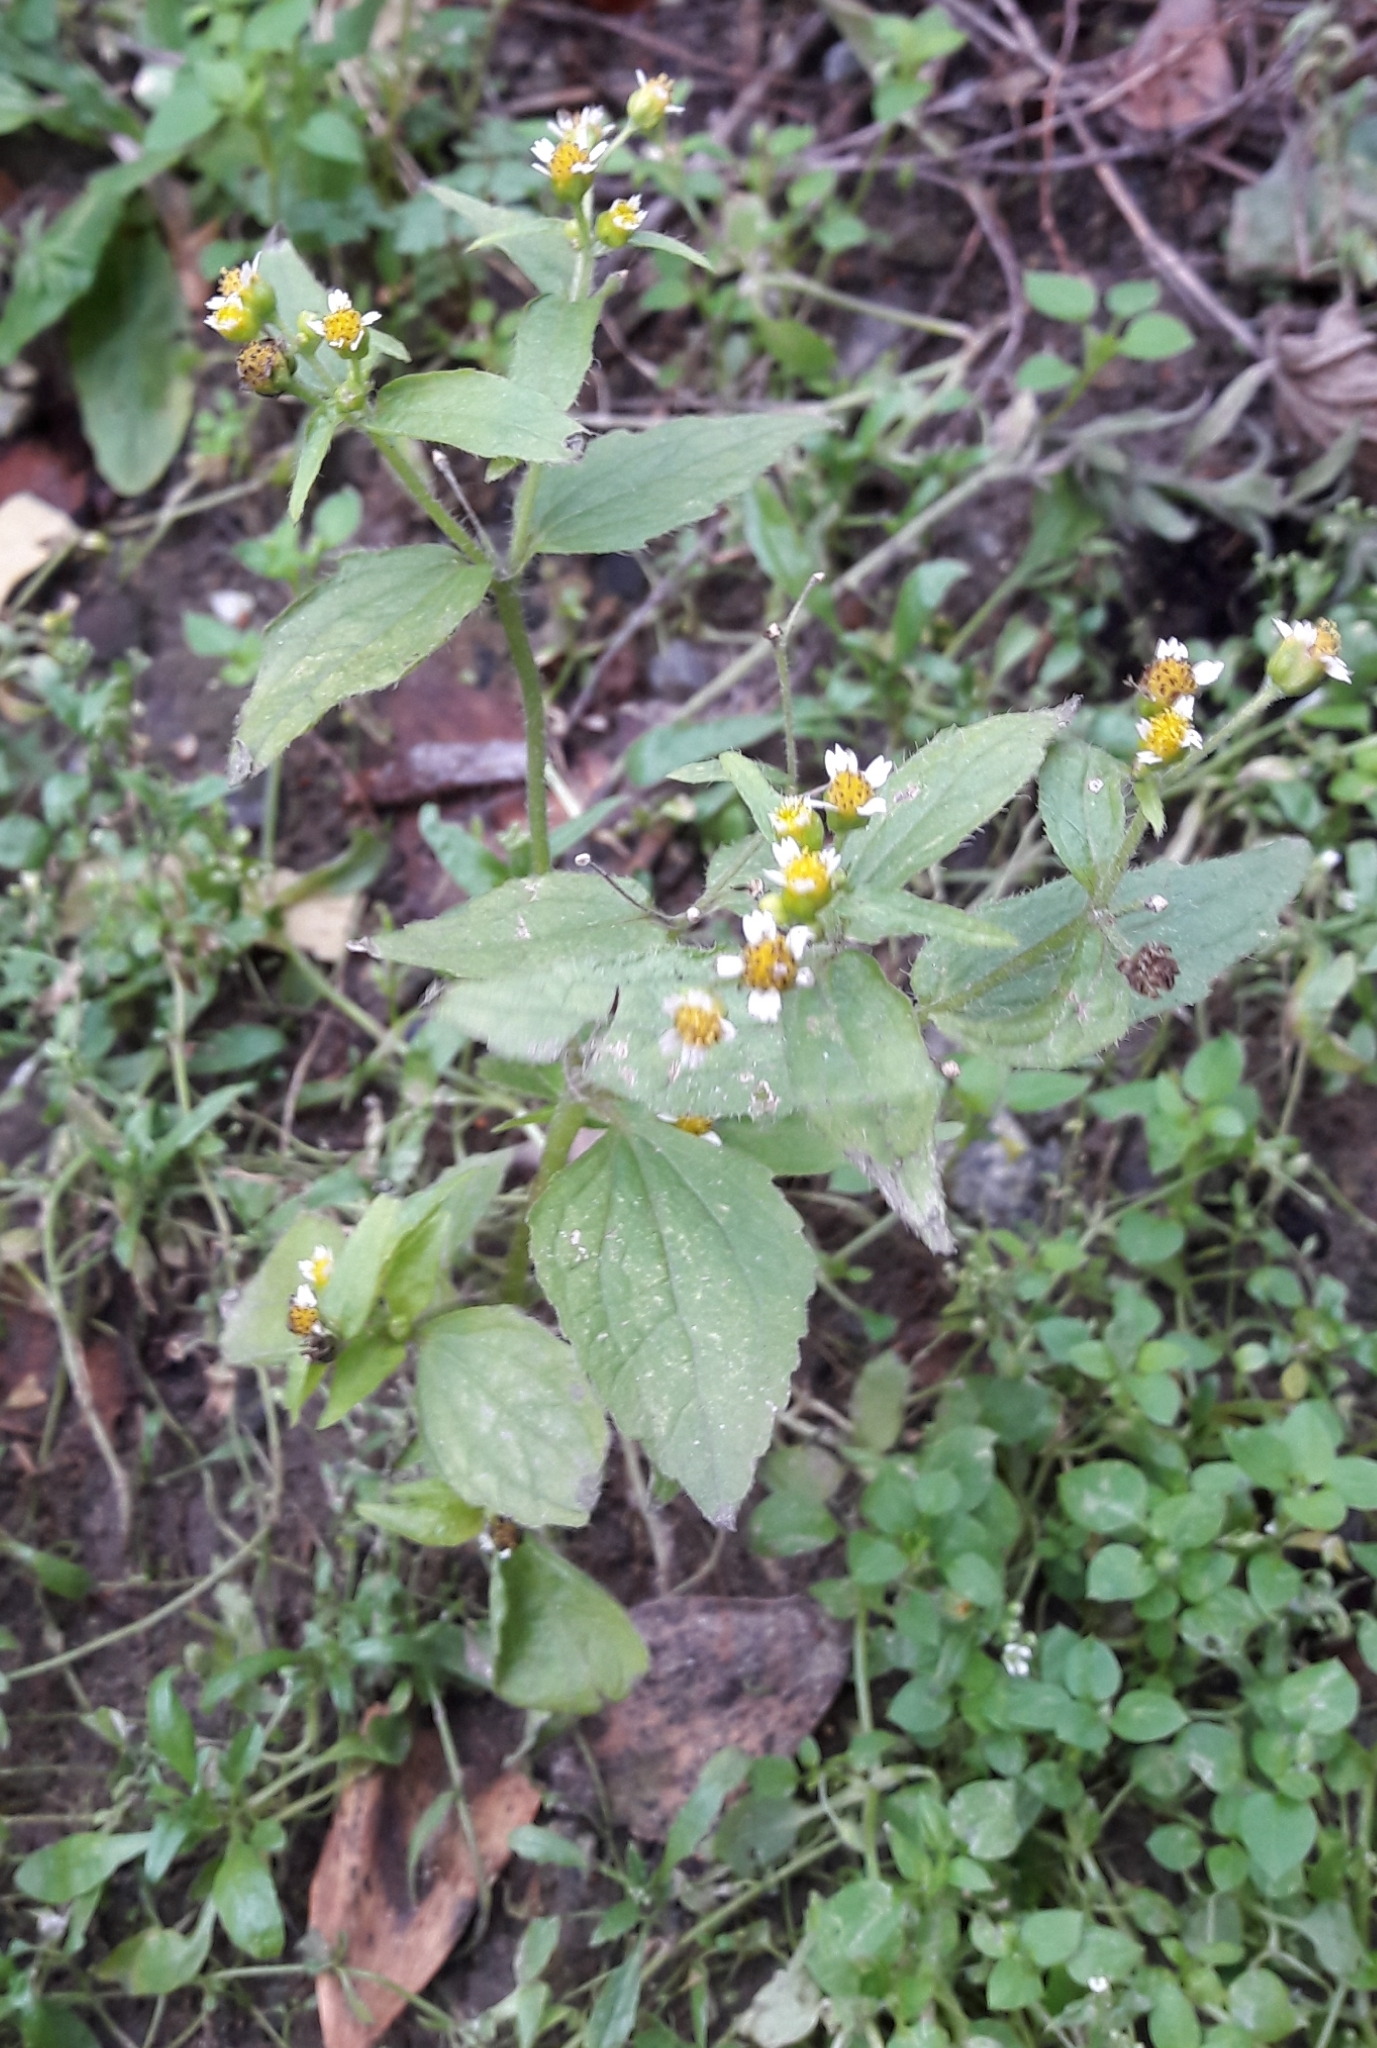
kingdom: Plantae
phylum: Tracheophyta
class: Magnoliopsida
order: Asterales
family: Asteraceae
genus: Galinsoga
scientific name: Galinsoga quadriradiata
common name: Shaggy soldier
